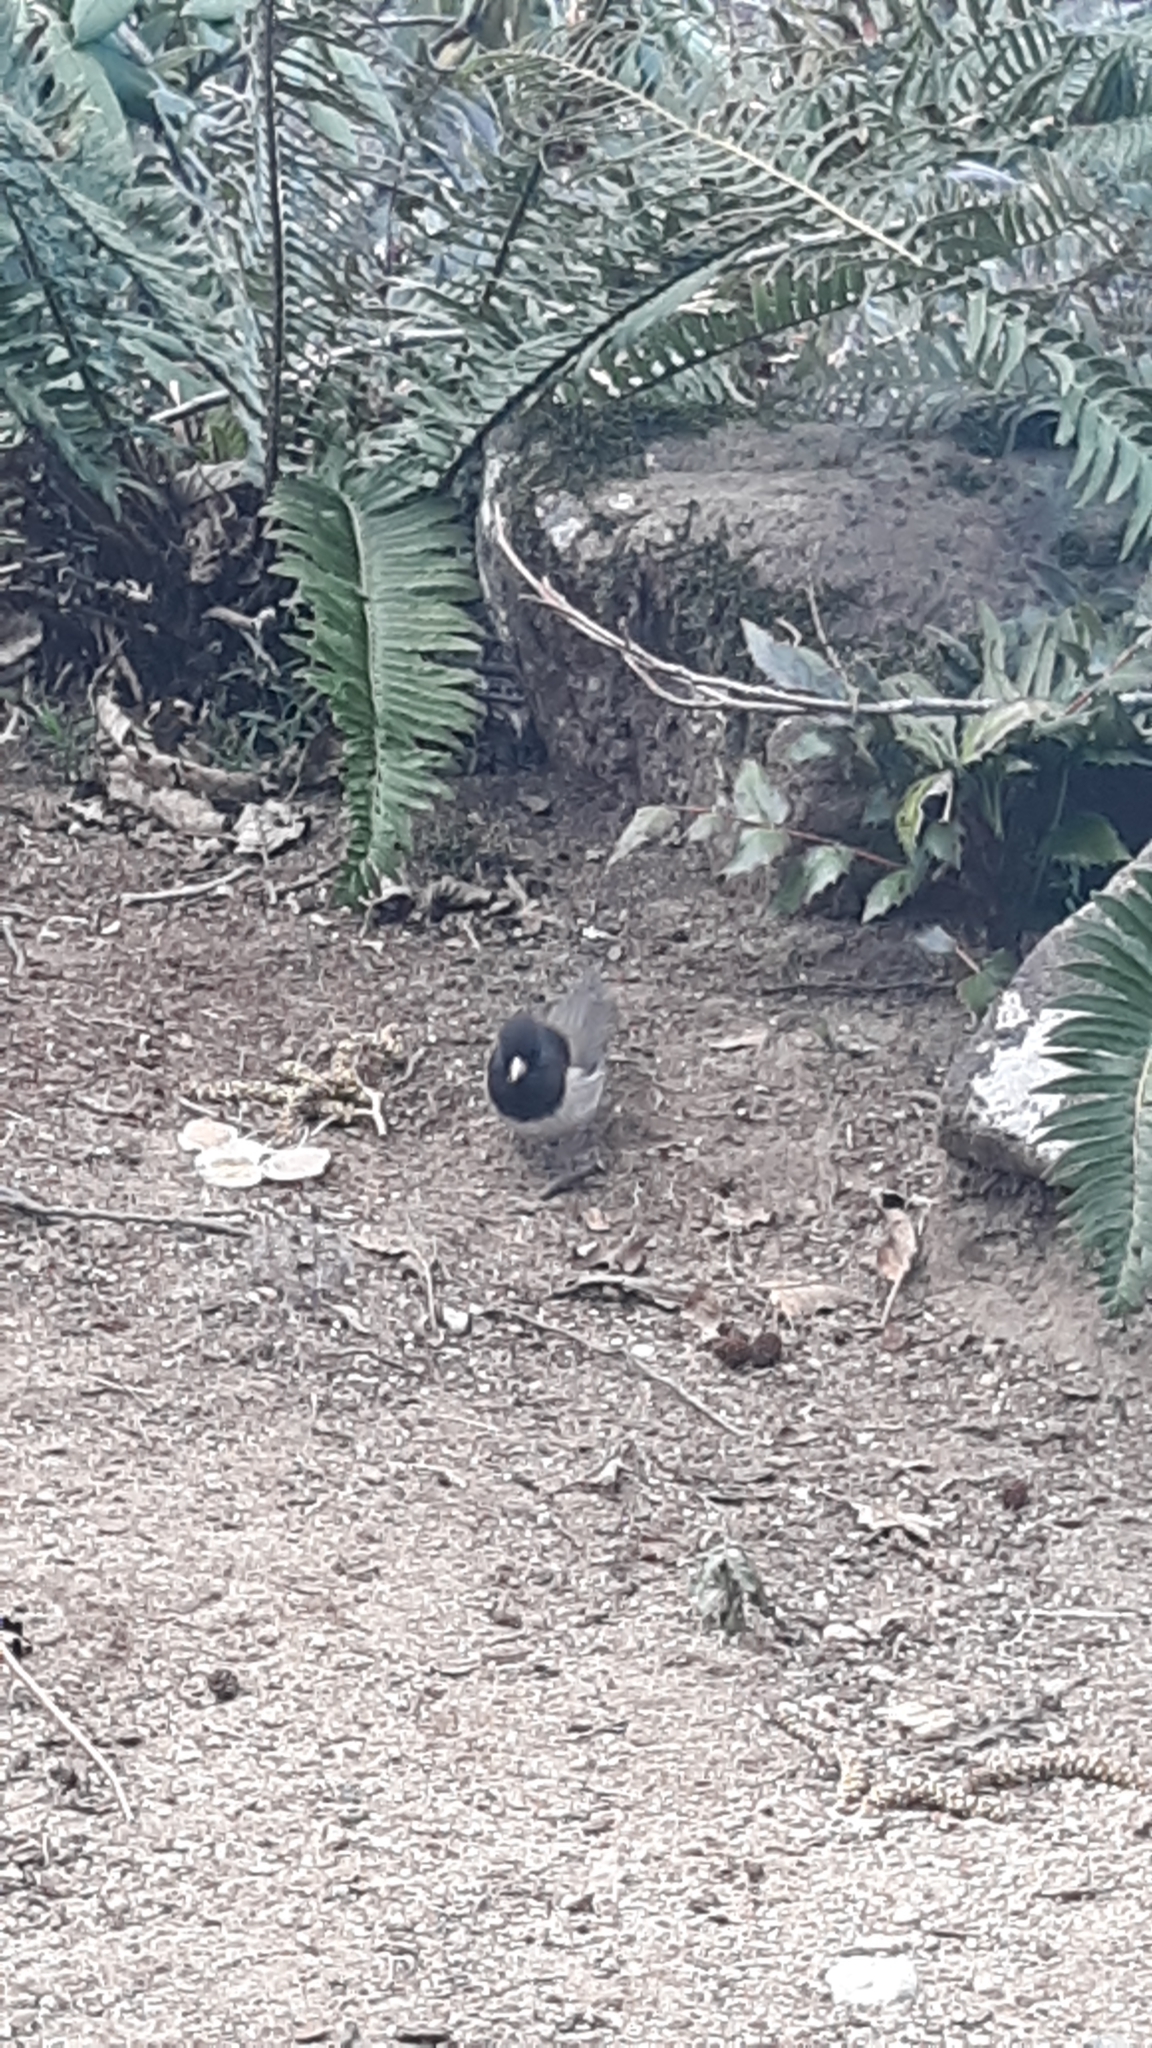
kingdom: Animalia
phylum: Chordata
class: Aves
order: Passeriformes
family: Passerellidae
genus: Junco
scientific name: Junco hyemalis
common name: Dark-eyed junco
